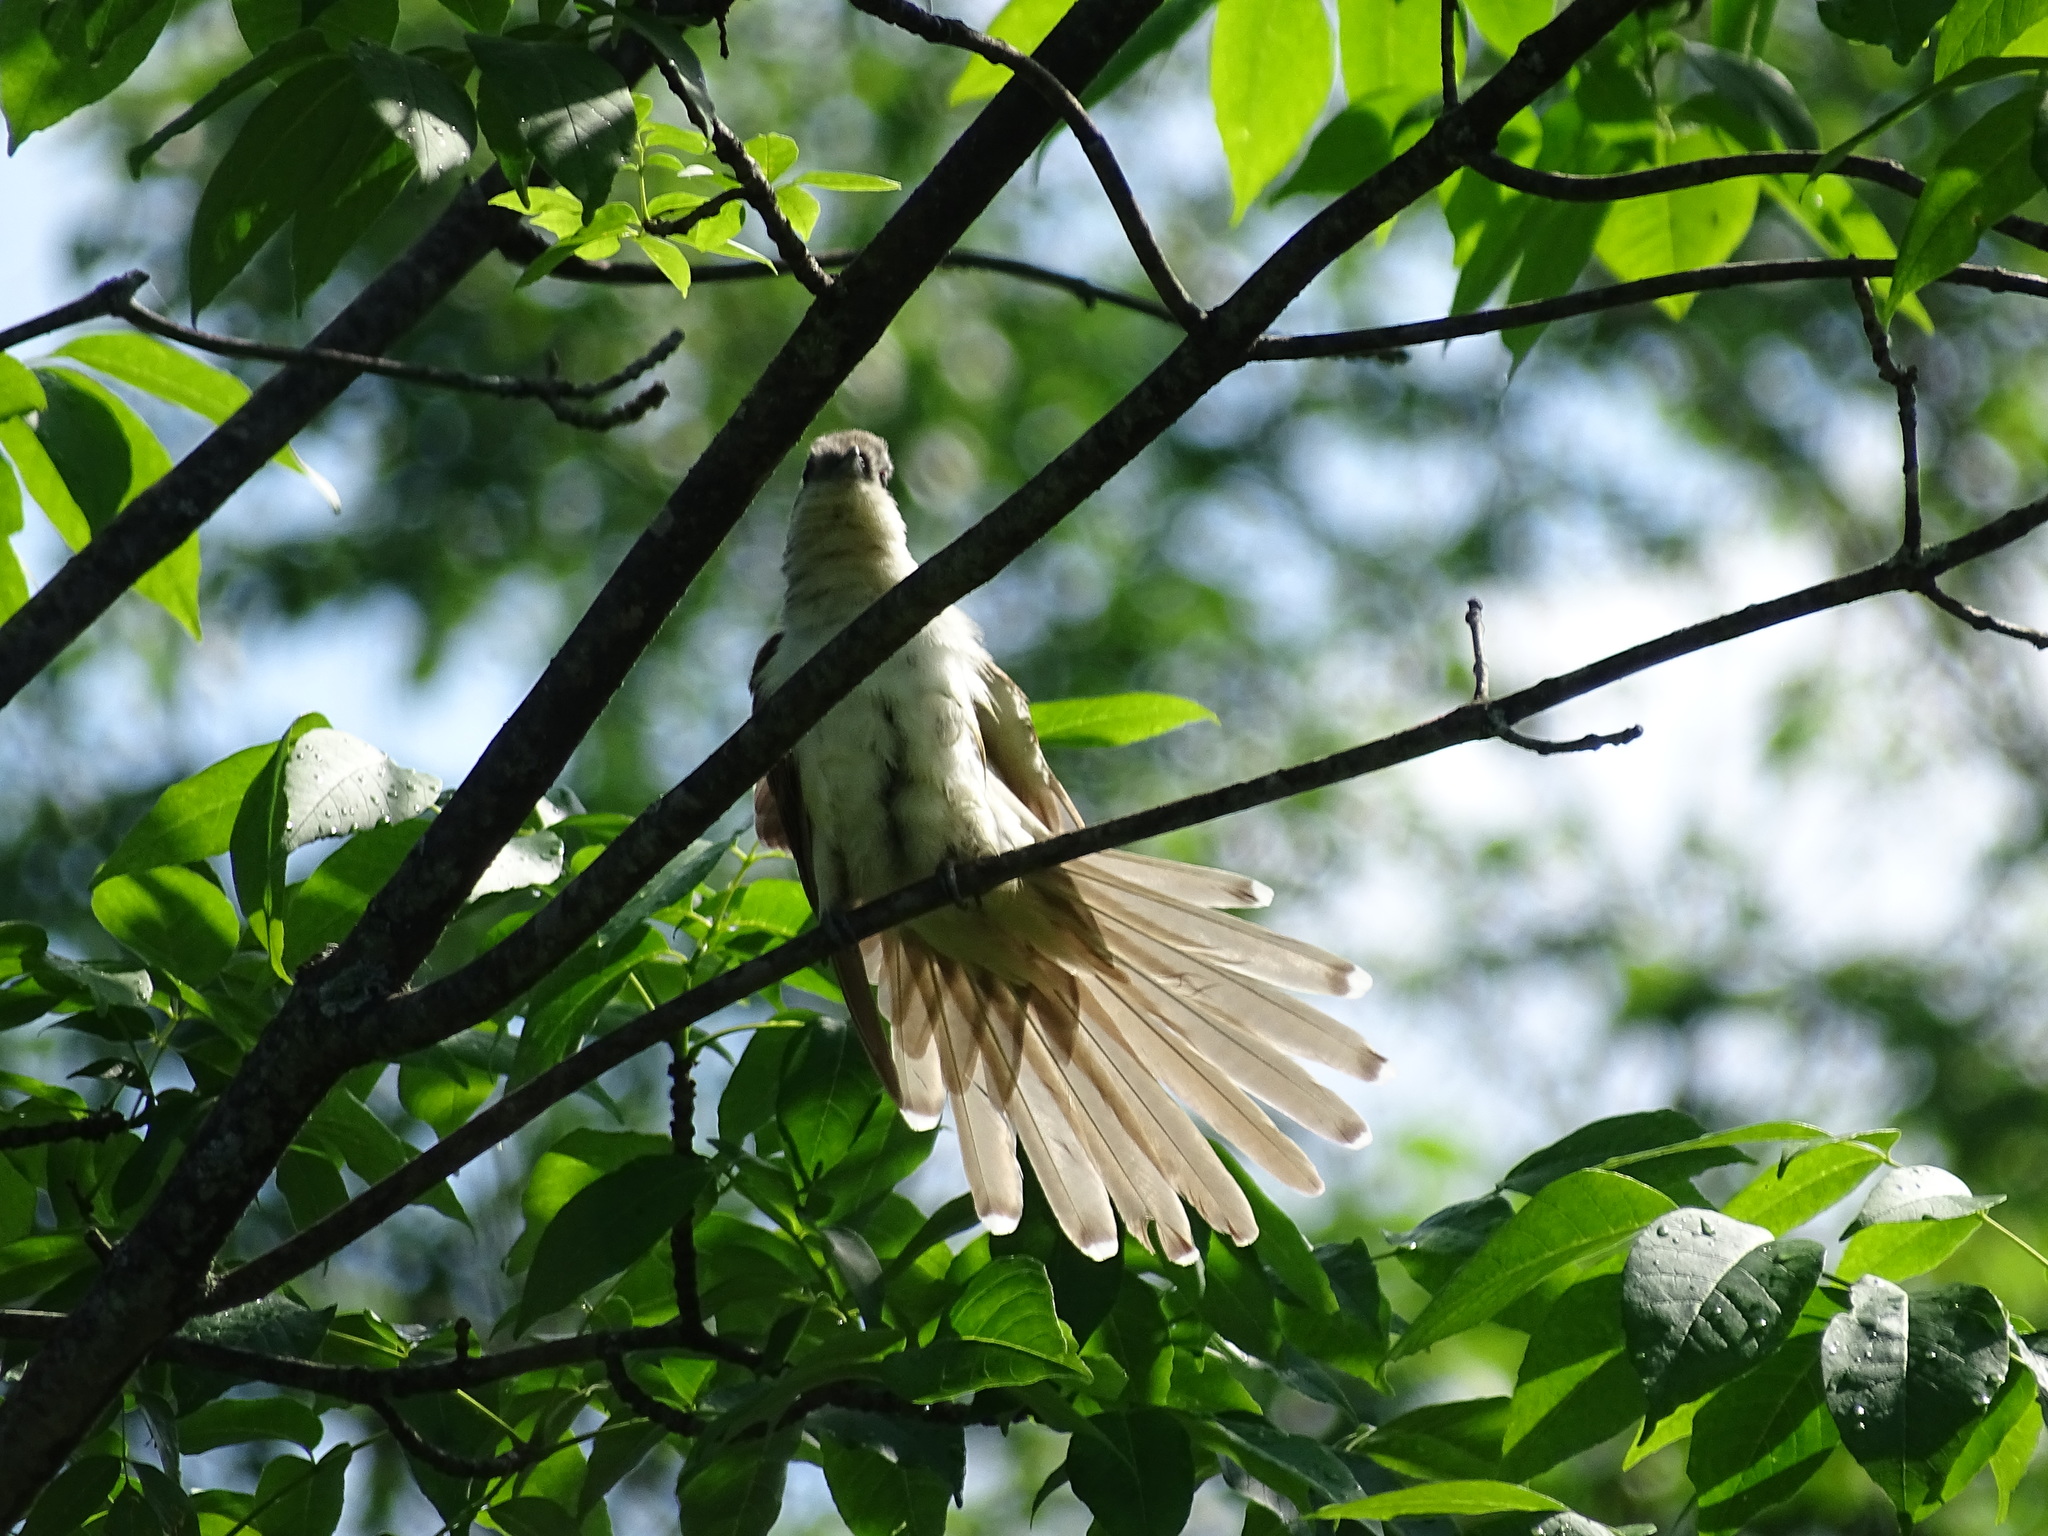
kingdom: Animalia
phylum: Chordata
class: Aves
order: Cuculiformes
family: Cuculidae
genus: Coccyzus
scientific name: Coccyzus erythropthalmus
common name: Black-billed cuckoo
